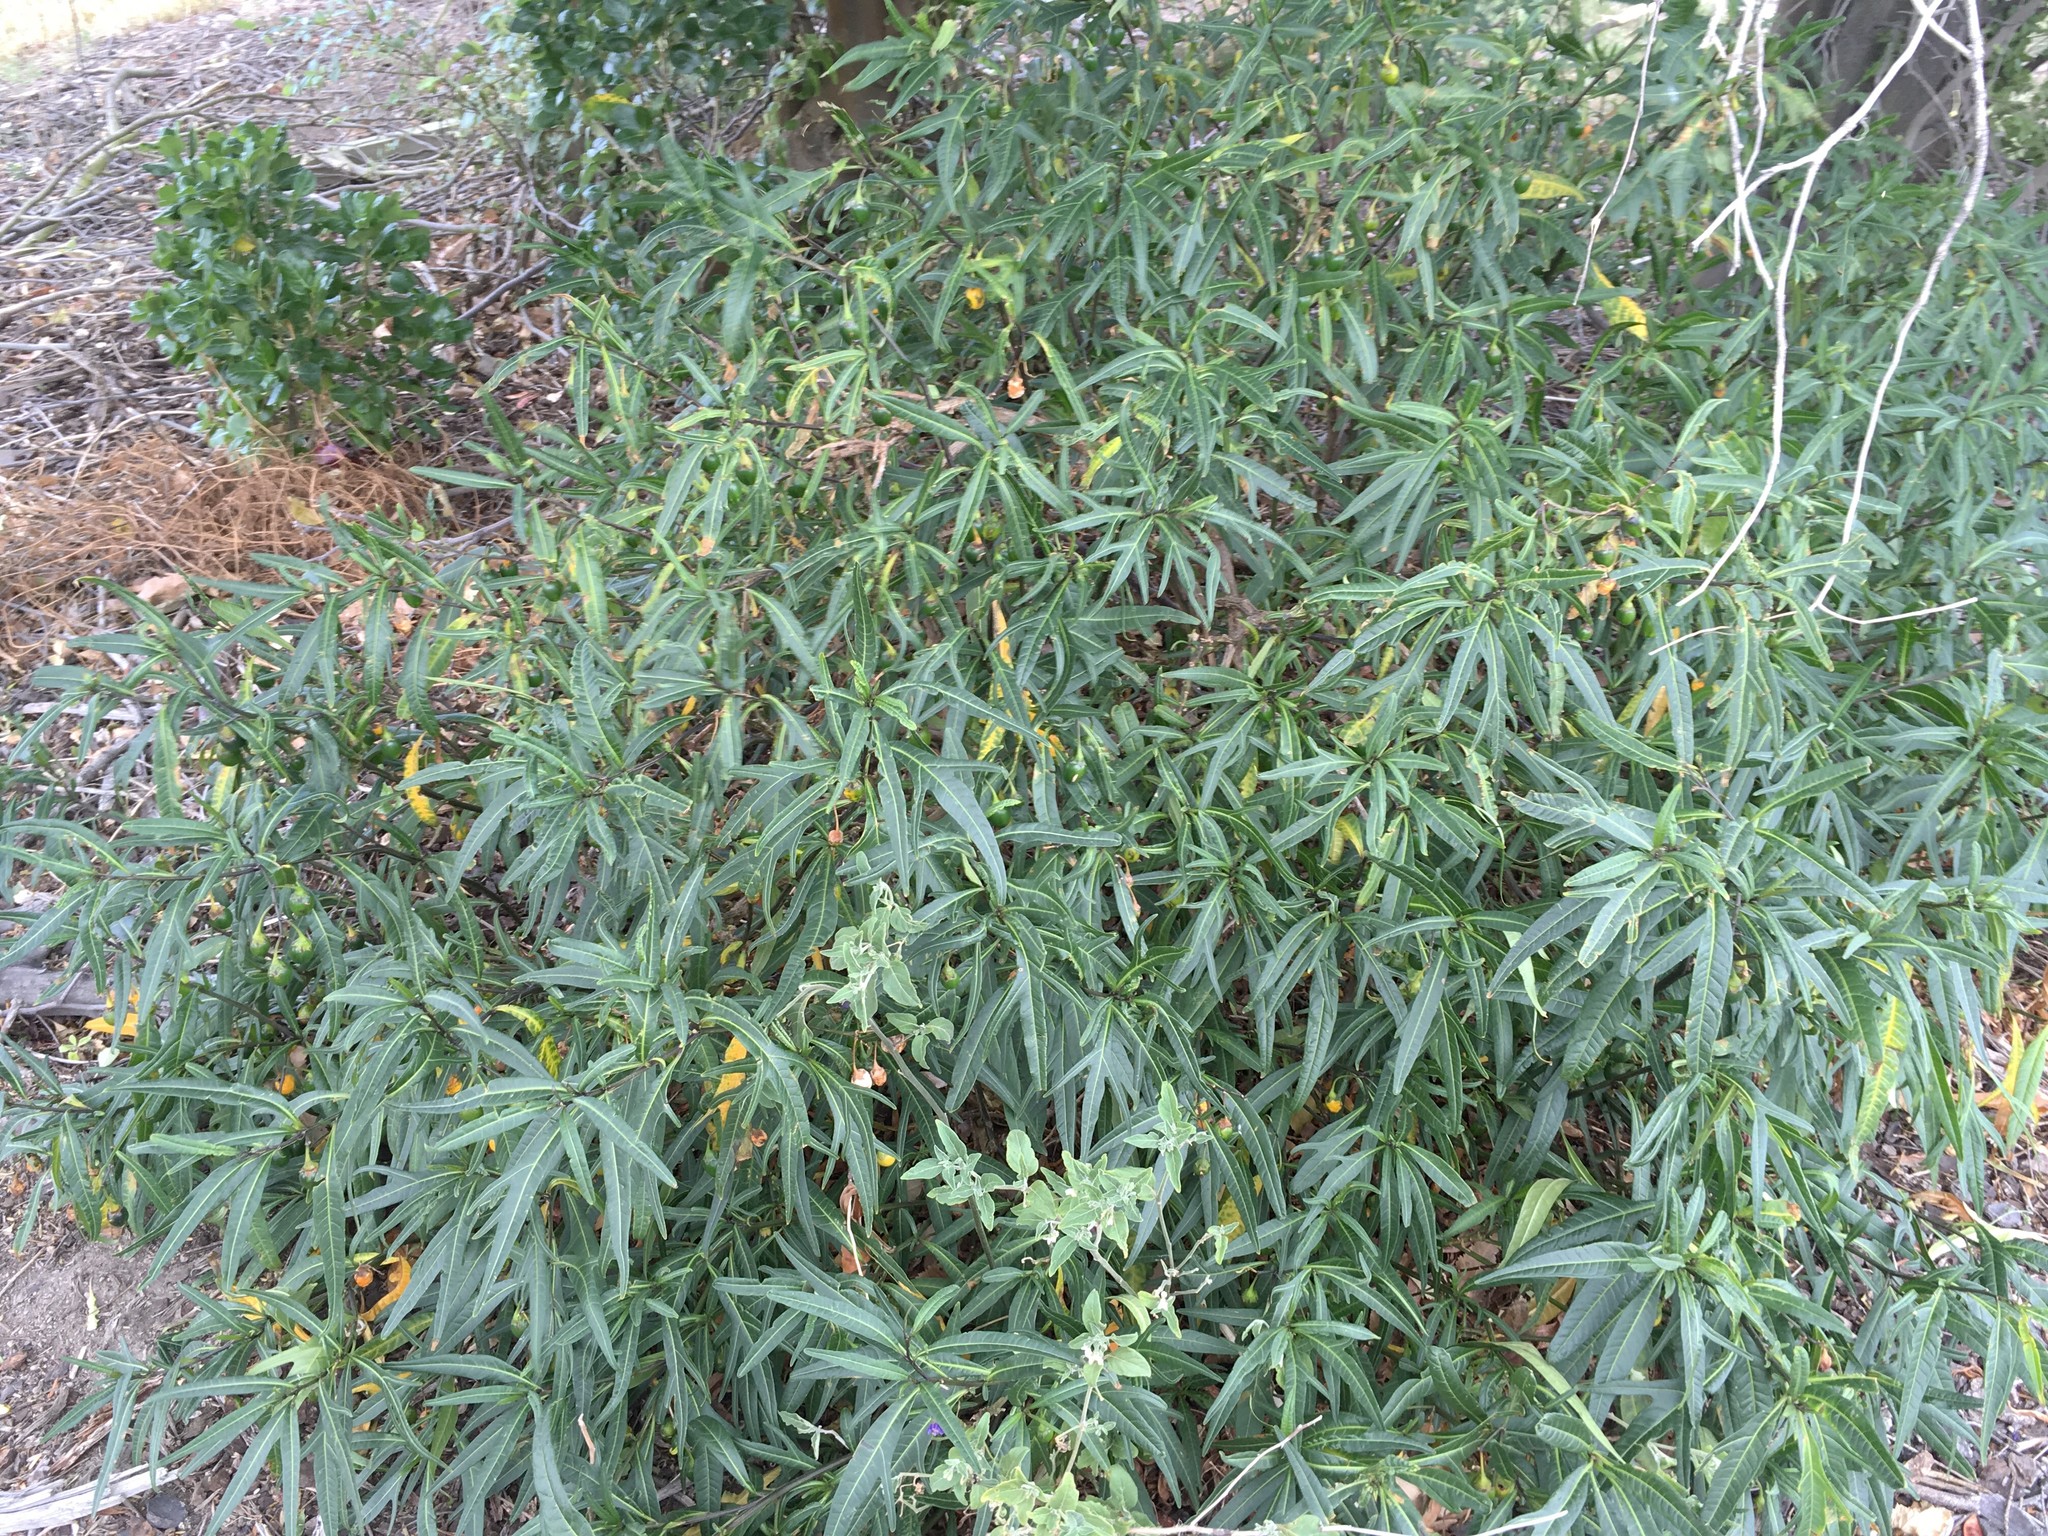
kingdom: Plantae
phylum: Tracheophyta
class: Magnoliopsida
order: Solanales
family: Solanaceae
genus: Solanum
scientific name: Solanum laciniatum
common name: Kangaroo-apple
